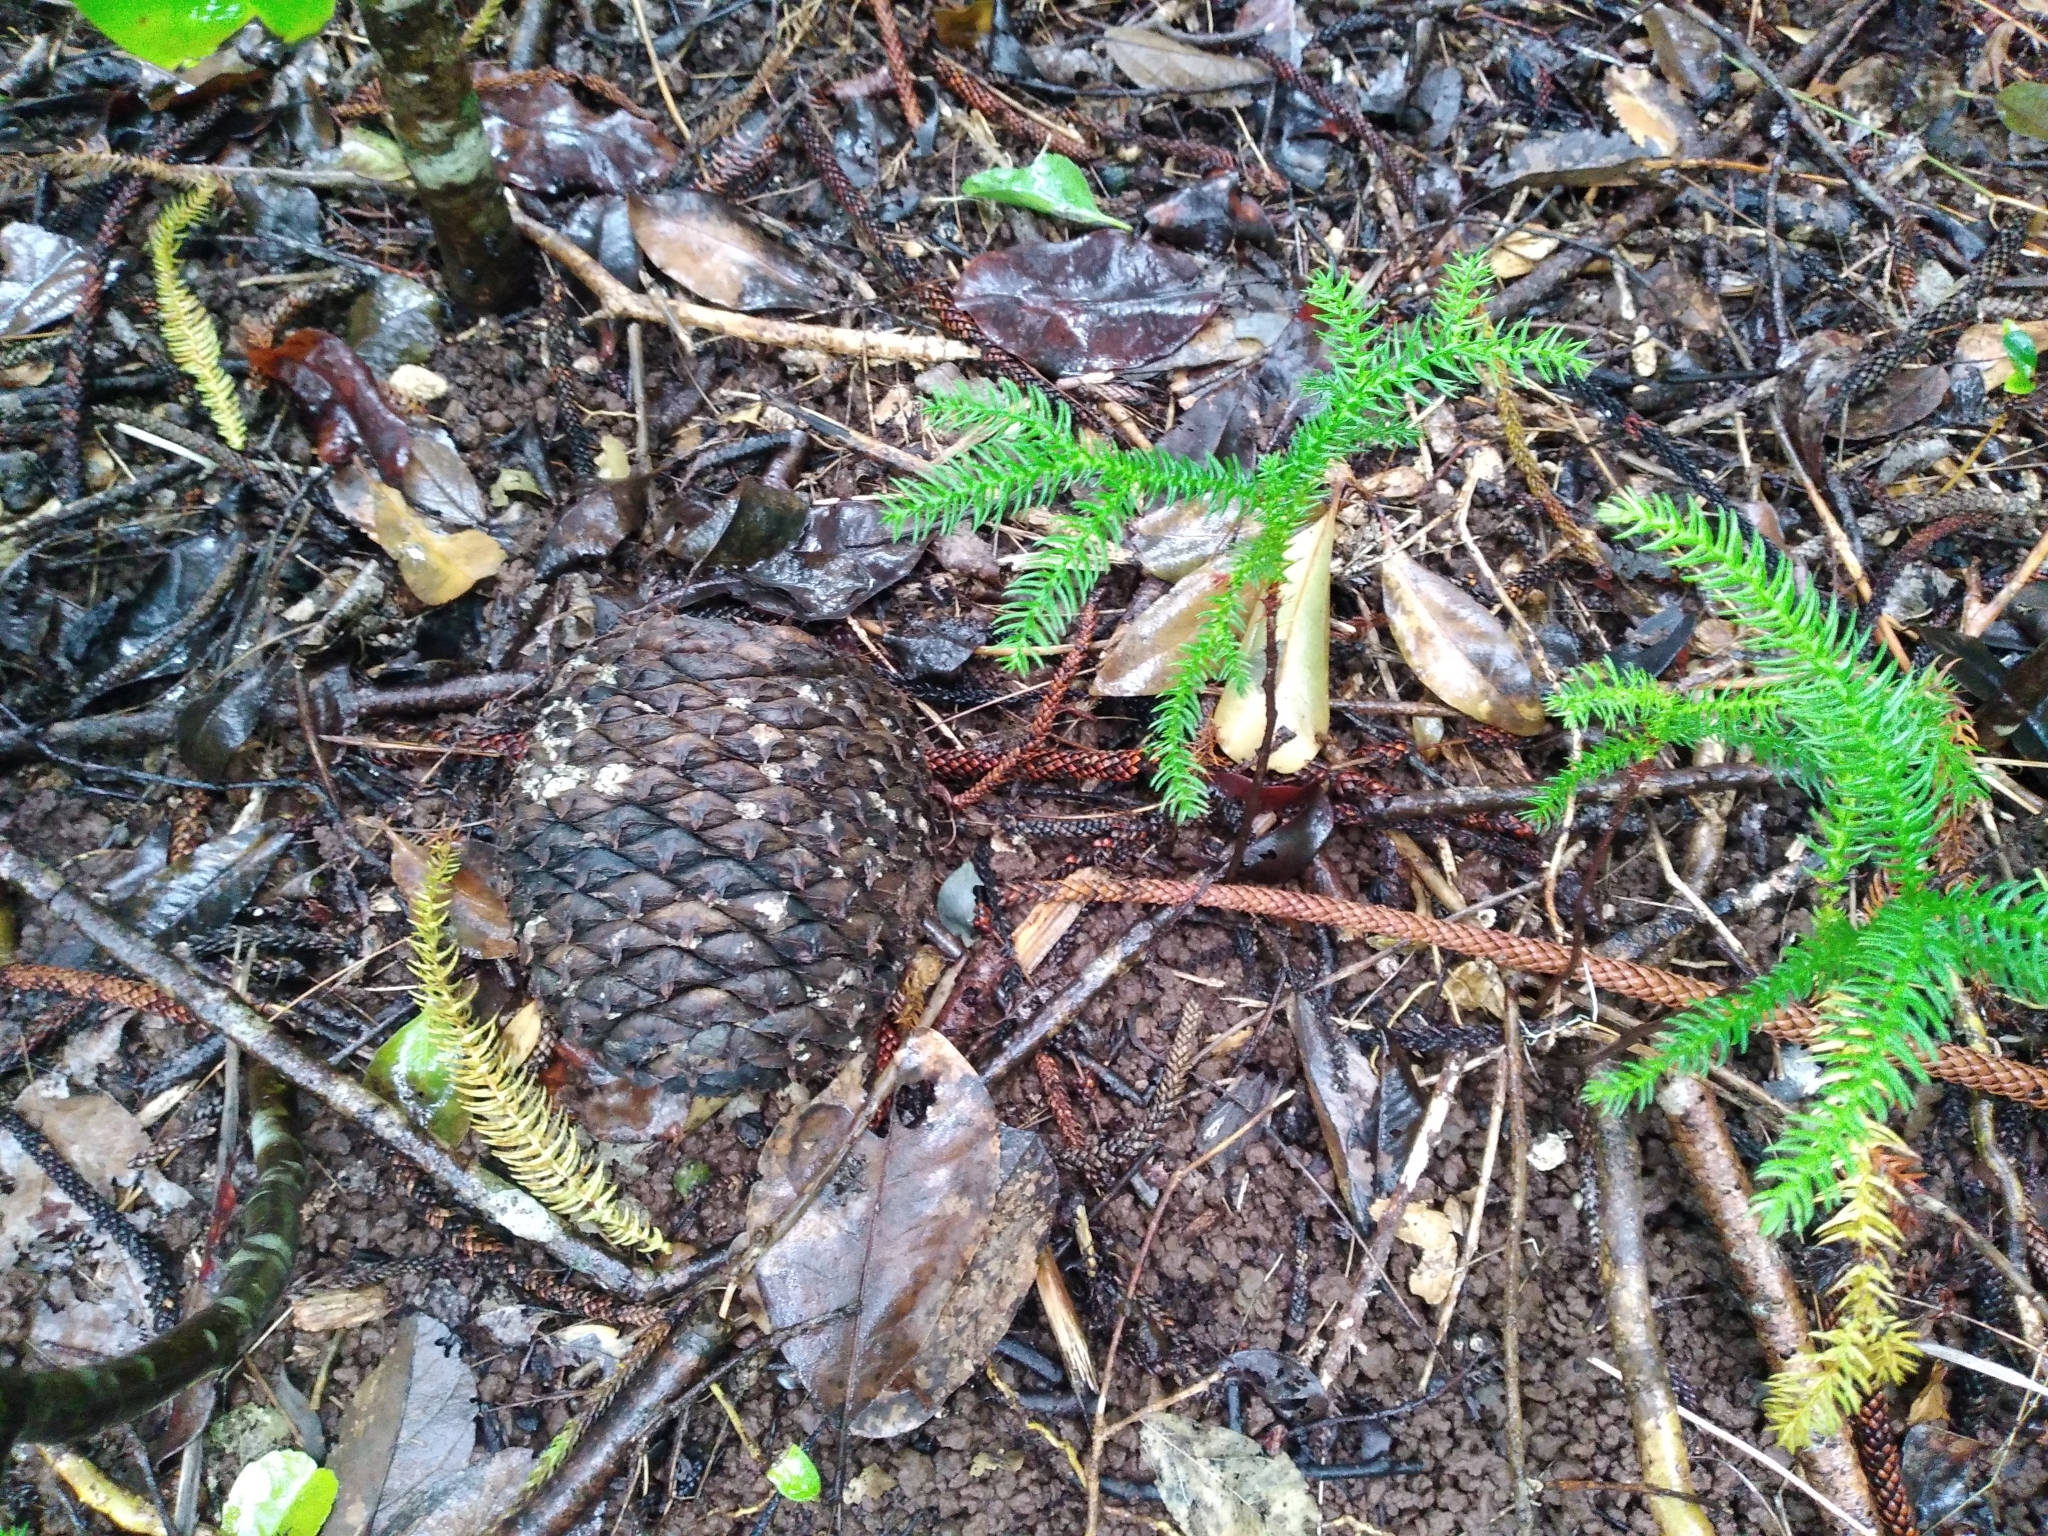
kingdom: Plantae
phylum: Tracheophyta
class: Pinopsida
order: Pinales
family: Araucariaceae
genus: Araucaria
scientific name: Araucaria heterophylla
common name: Norfolk island pine
